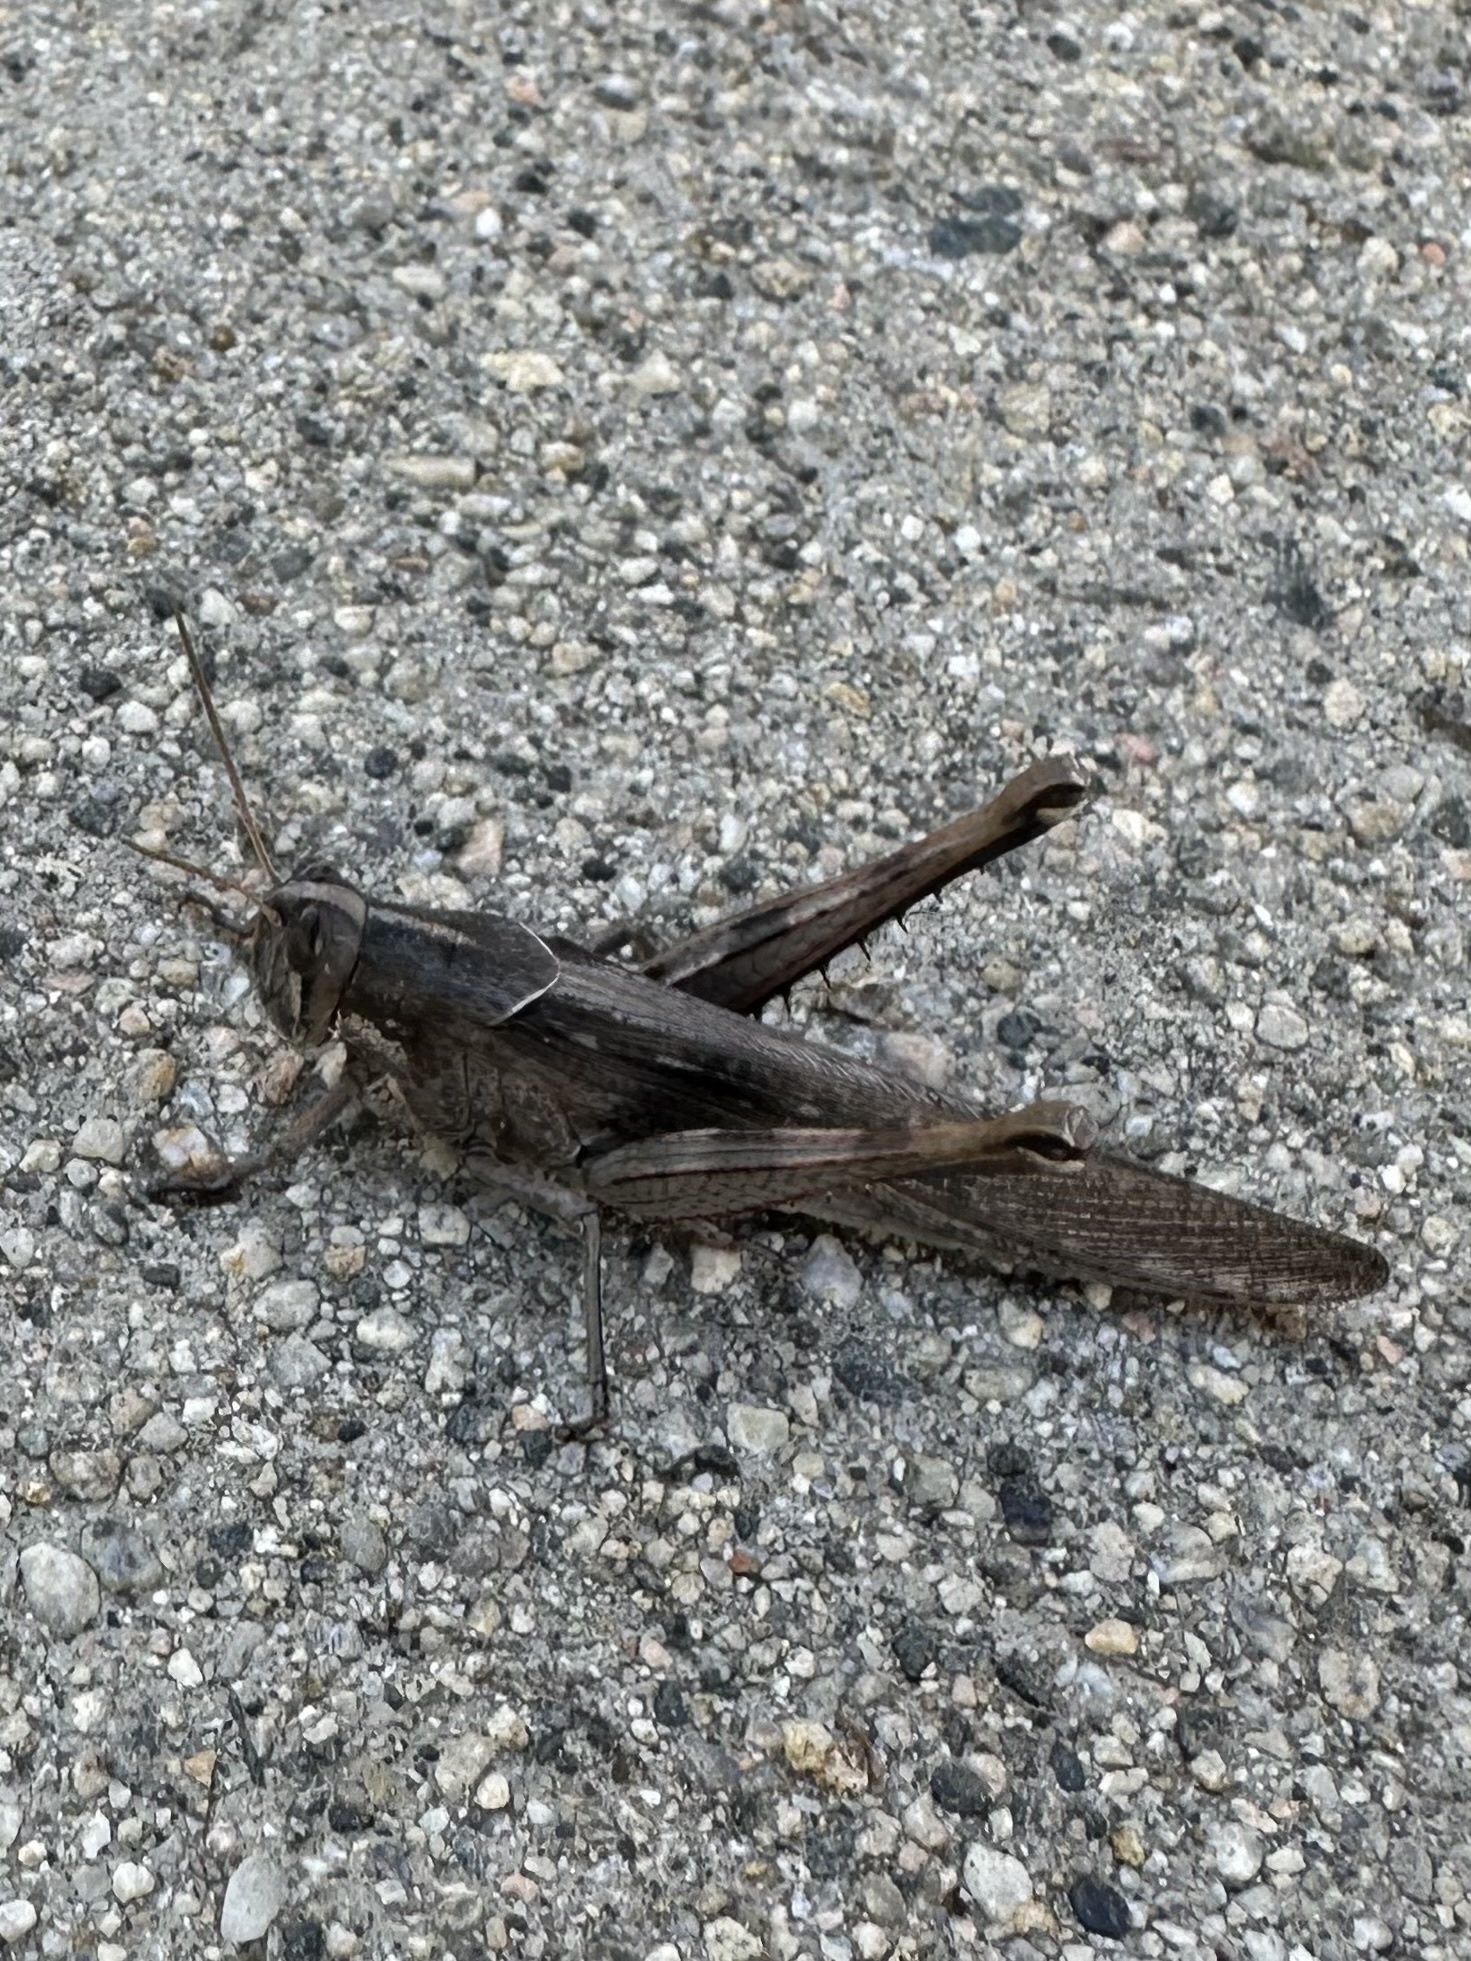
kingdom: Animalia
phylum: Arthropoda
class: Insecta
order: Orthoptera
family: Acrididae
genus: Schistocerca
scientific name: Schistocerca nitens
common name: Vagrant grasshopper
